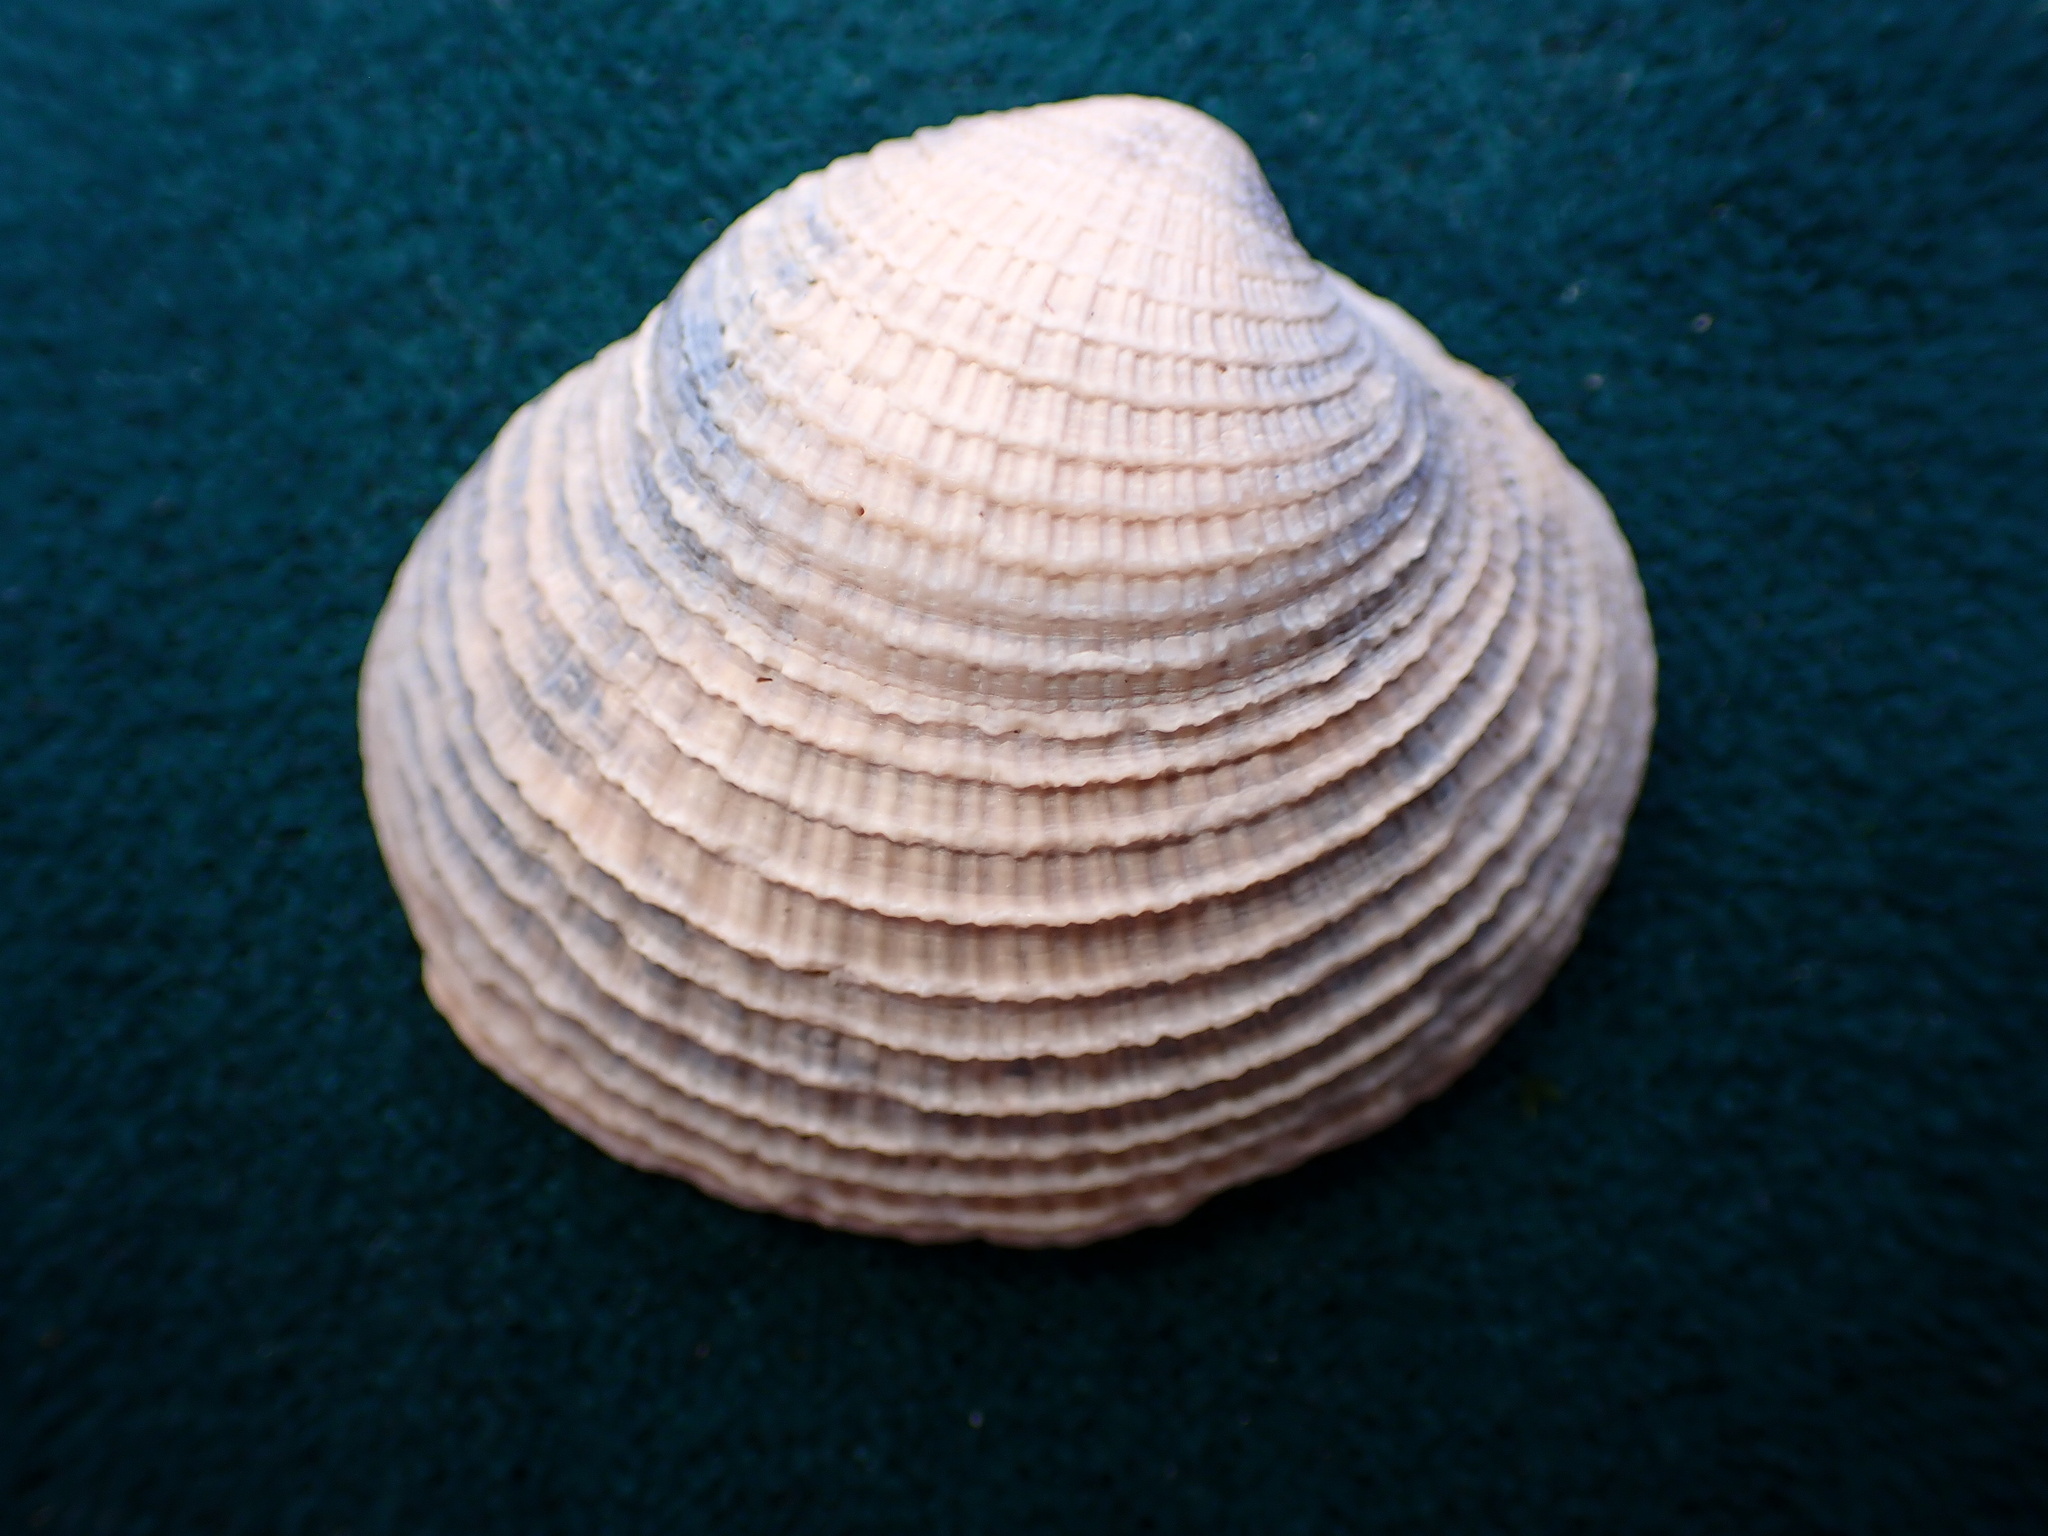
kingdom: Animalia
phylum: Mollusca
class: Bivalvia
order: Venerida
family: Veneridae
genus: Chione
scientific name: Chione undatella
